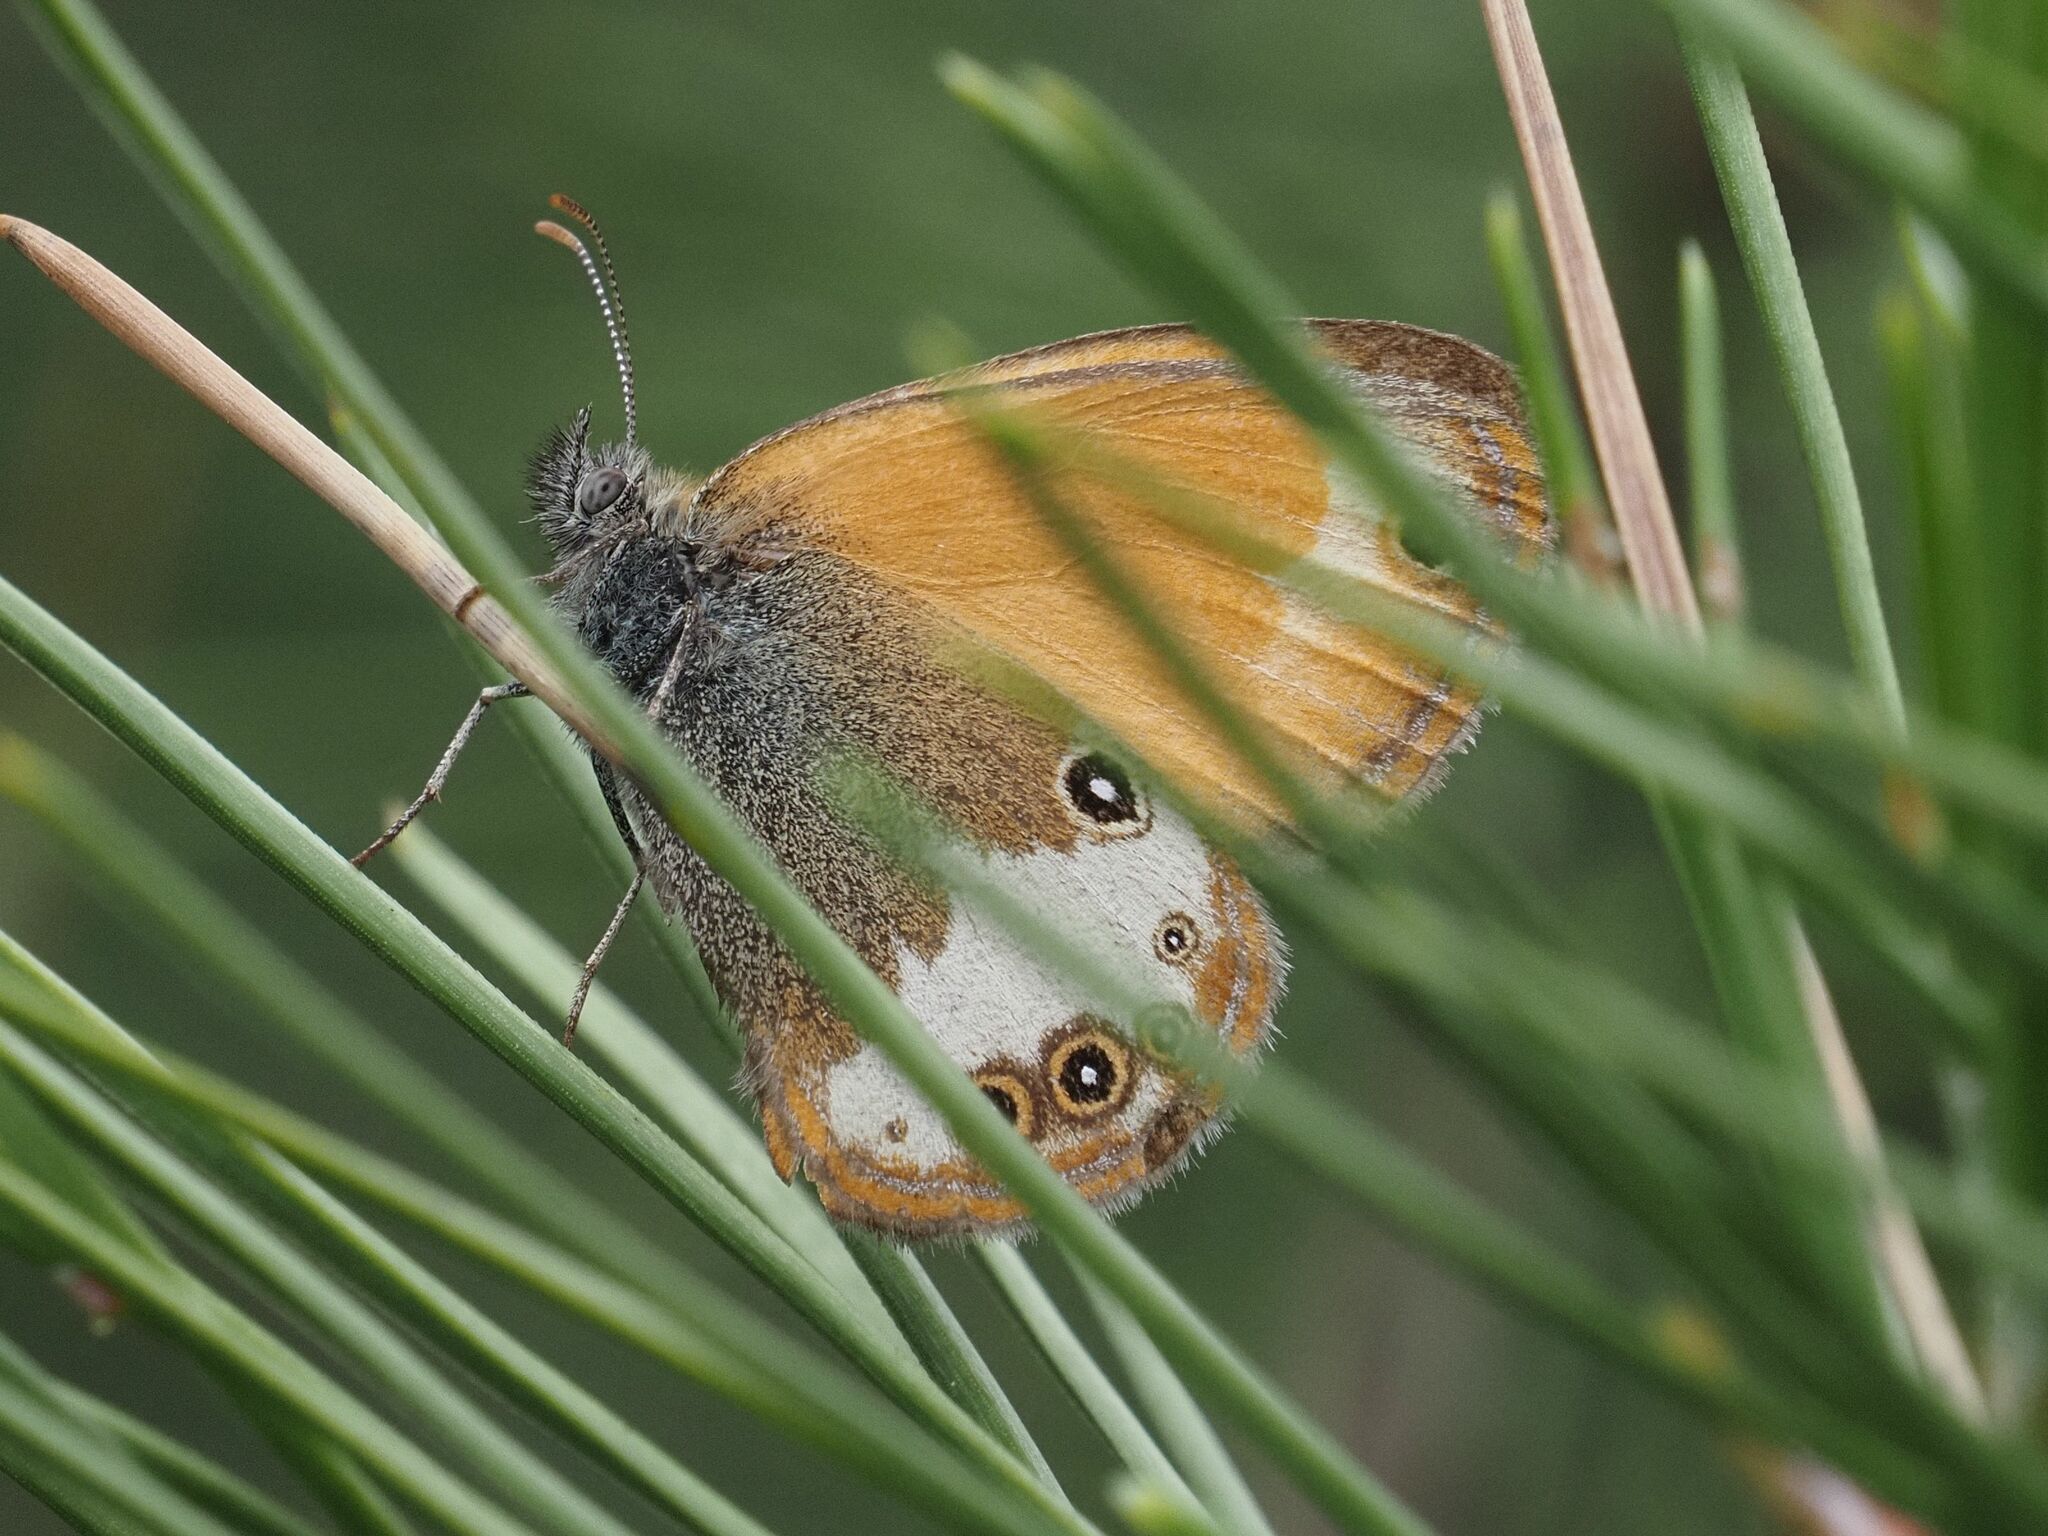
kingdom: Animalia
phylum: Arthropoda
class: Insecta
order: Lepidoptera
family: Nymphalidae
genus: Coenonympha
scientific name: Coenonympha arcania
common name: Pearly heath
